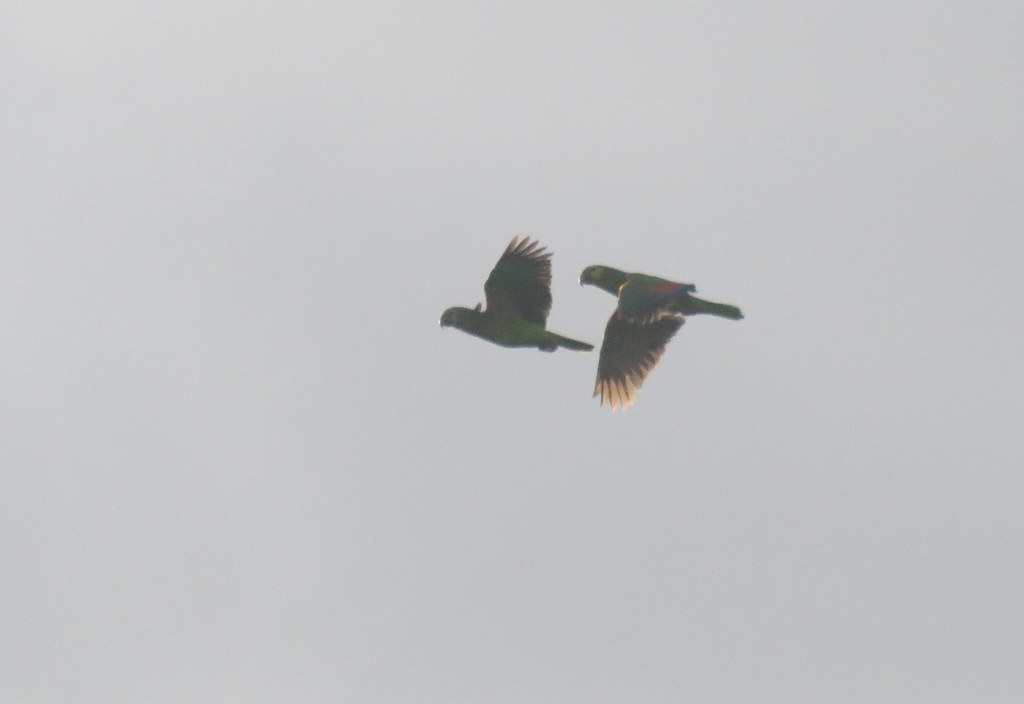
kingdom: Animalia
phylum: Chordata
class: Aves
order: Psittaciformes
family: Psittacidae
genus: Amazona
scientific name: Amazona aestiva
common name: Turquoise-fronted amazon
